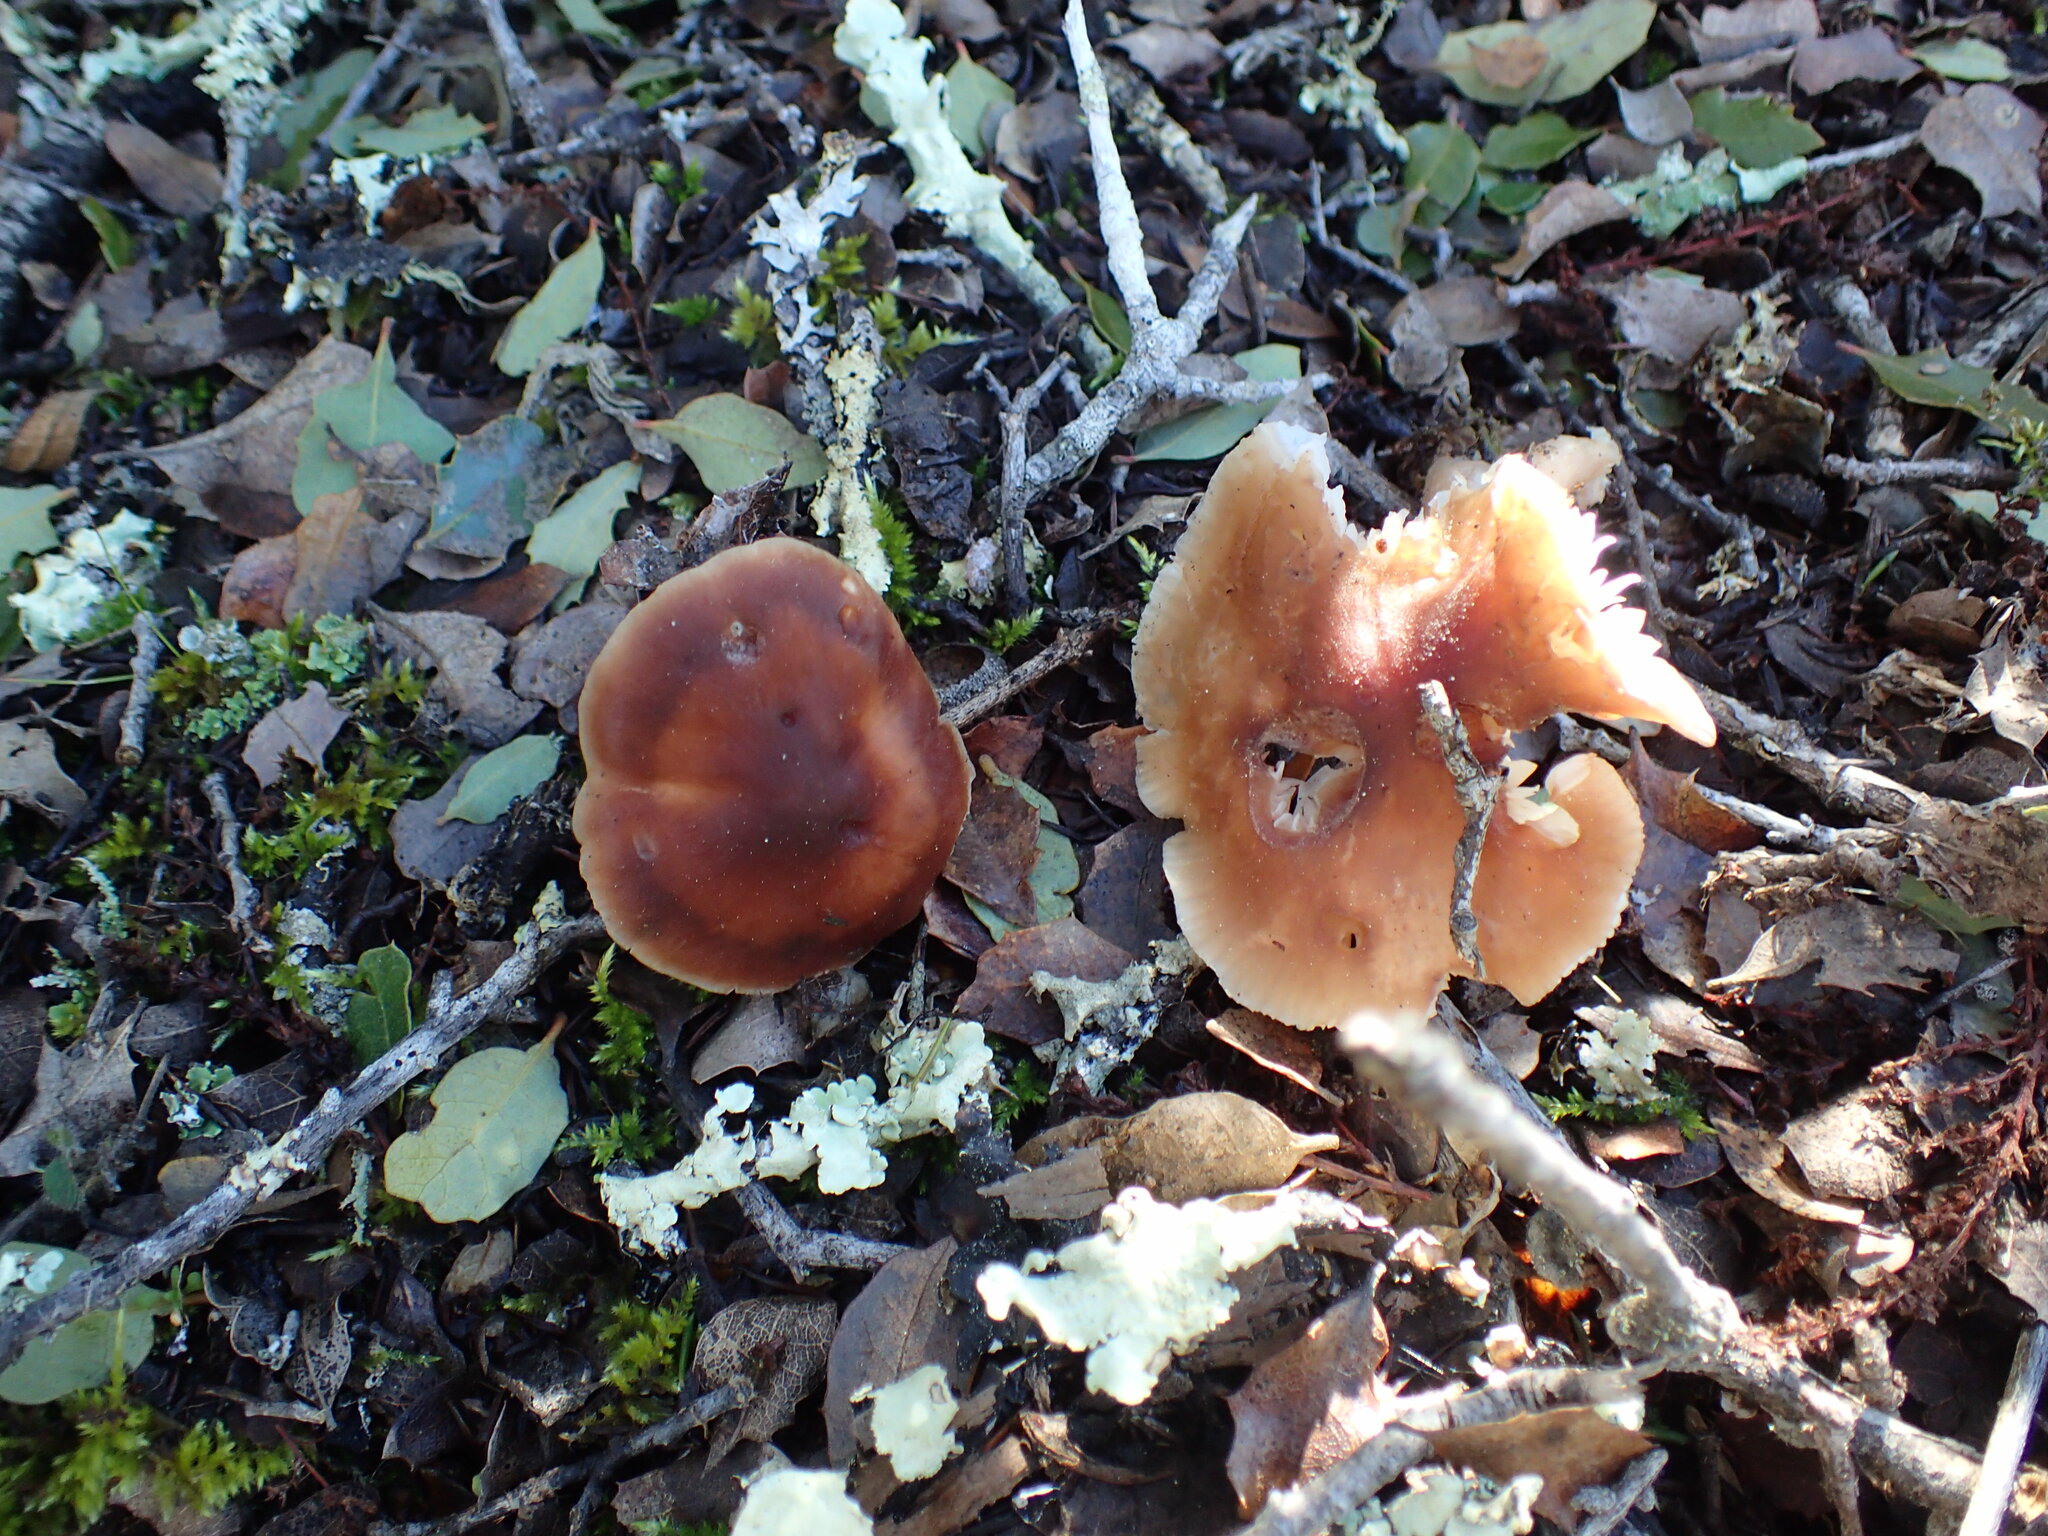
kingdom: Fungi
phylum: Basidiomycota
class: Agaricomycetes
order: Agaricales
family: Omphalotaceae
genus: Gymnopus
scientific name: Gymnopus dryophilus
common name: Penny top
